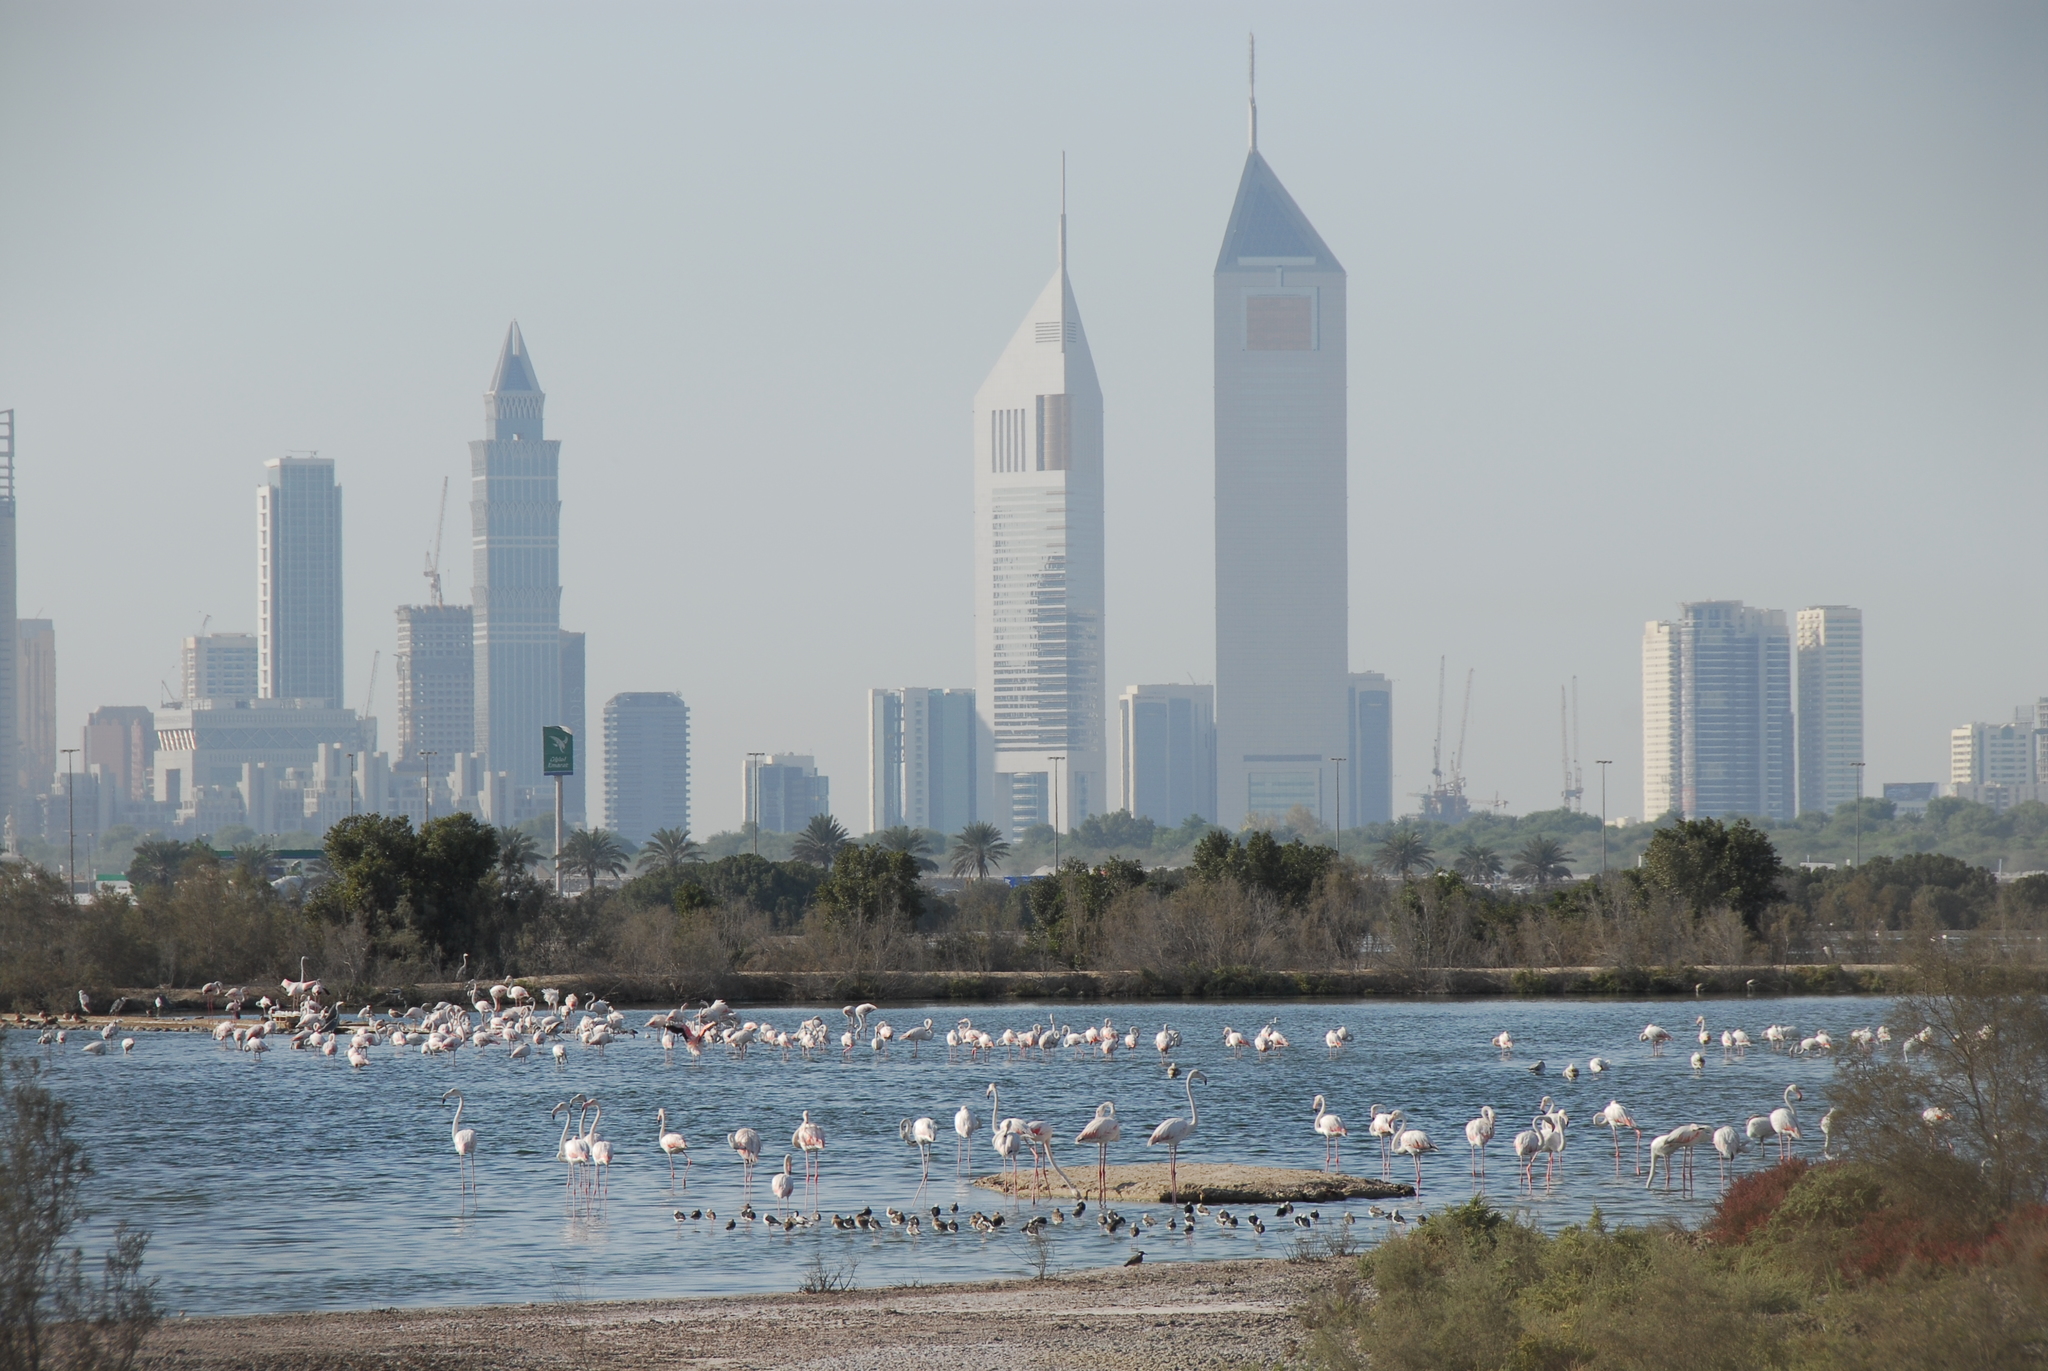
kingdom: Animalia
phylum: Chordata
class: Aves
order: Phoenicopteriformes
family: Phoenicopteridae
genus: Phoenicopterus
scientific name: Phoenicopterus roseus
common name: Greater flamingo
